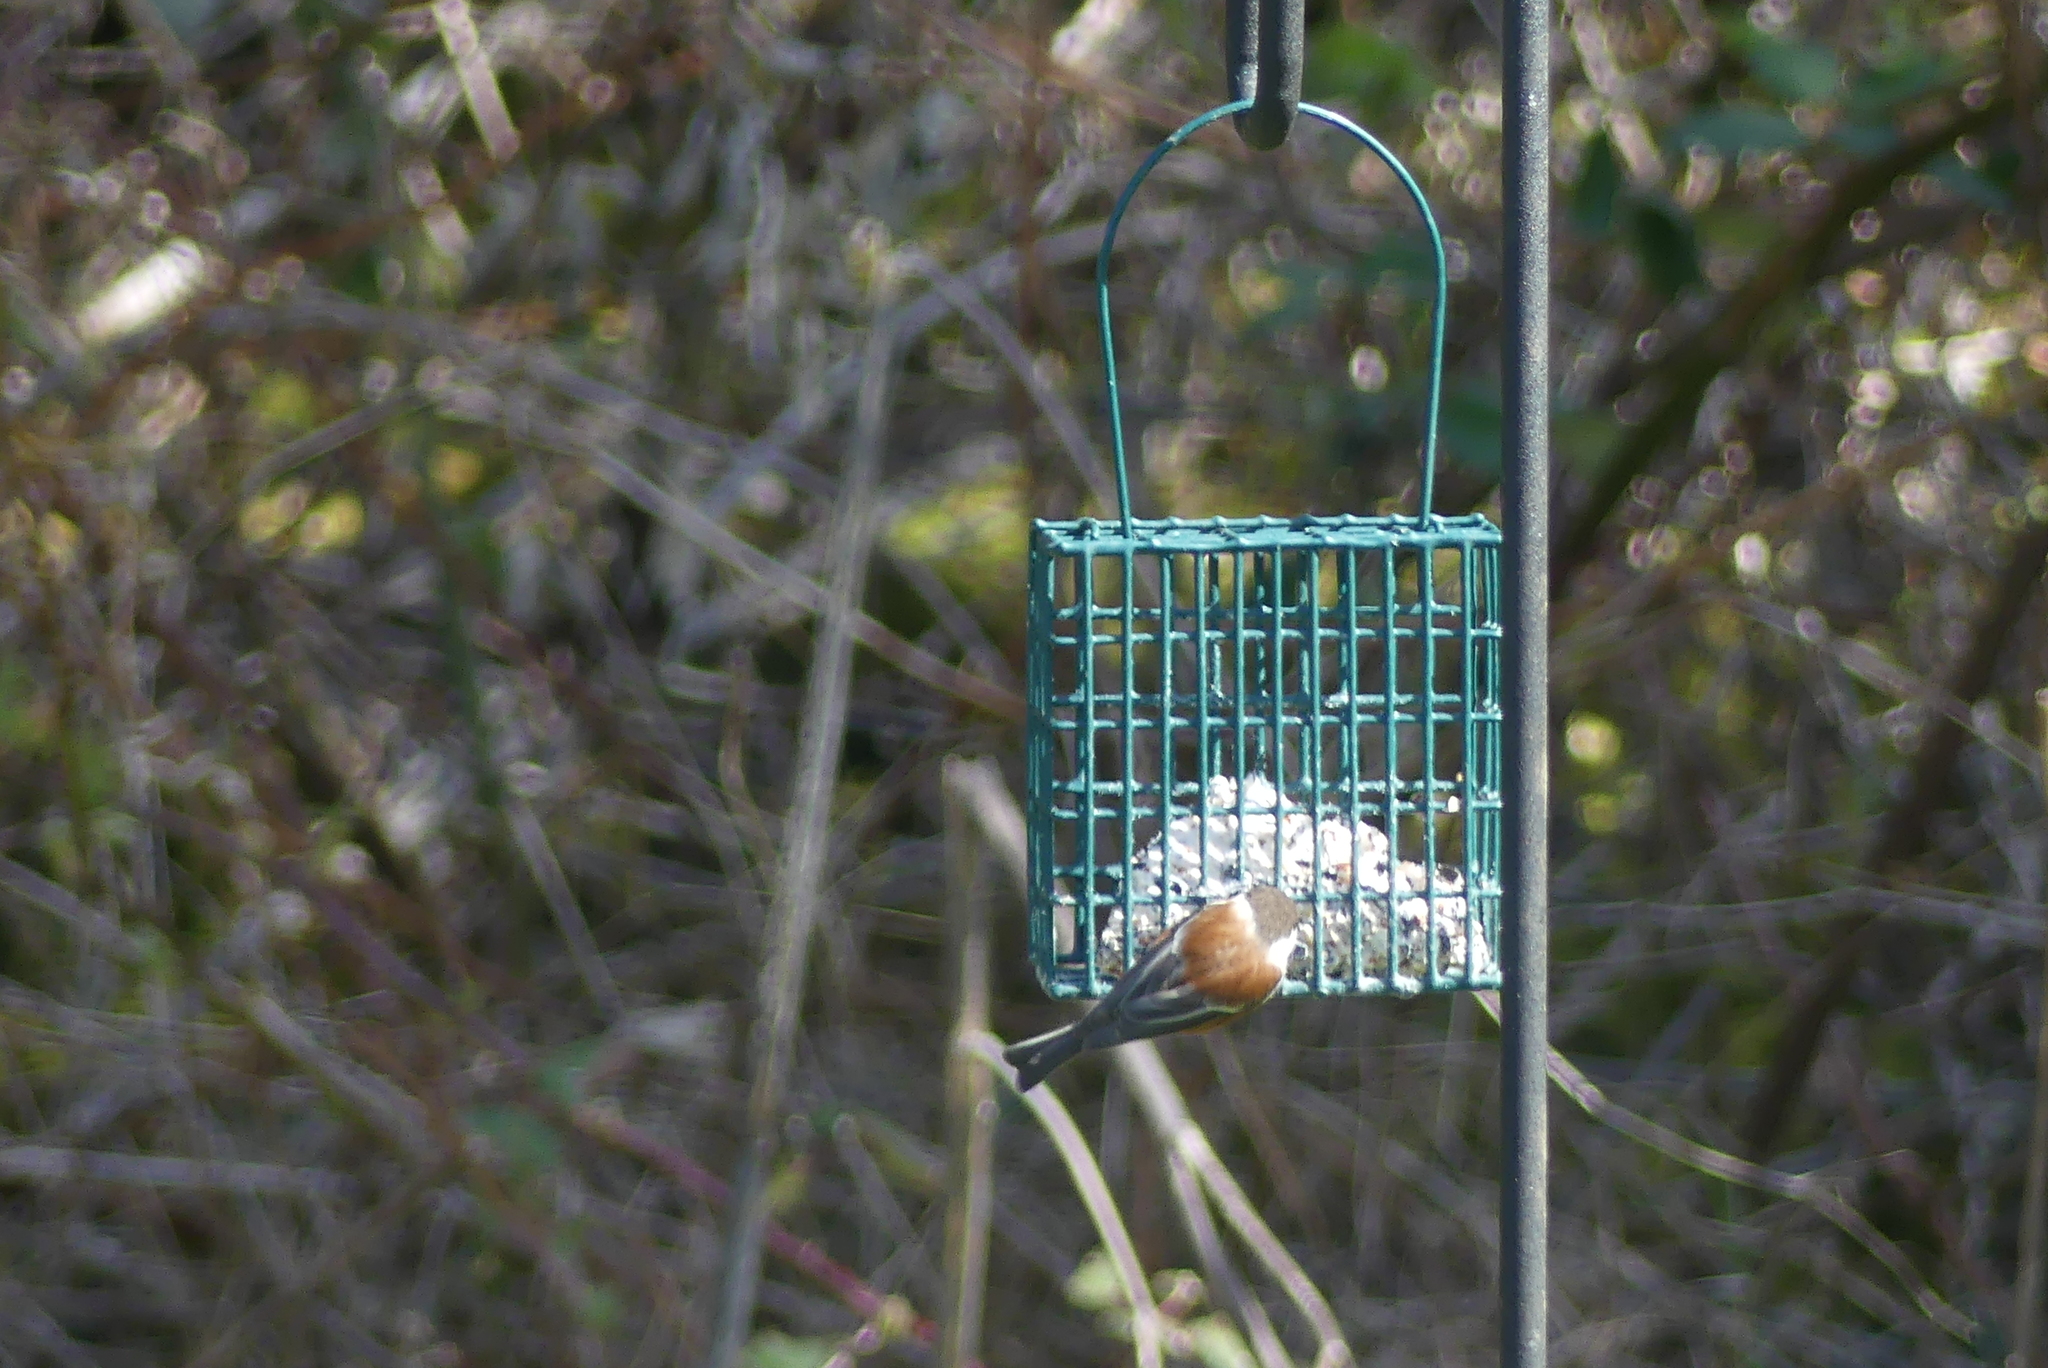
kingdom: Animalia
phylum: Chordata
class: Aves
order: Passeriformes
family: Paridae
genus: Poecile
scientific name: Poecile rufescens
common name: Chestnut-backed chickadee
